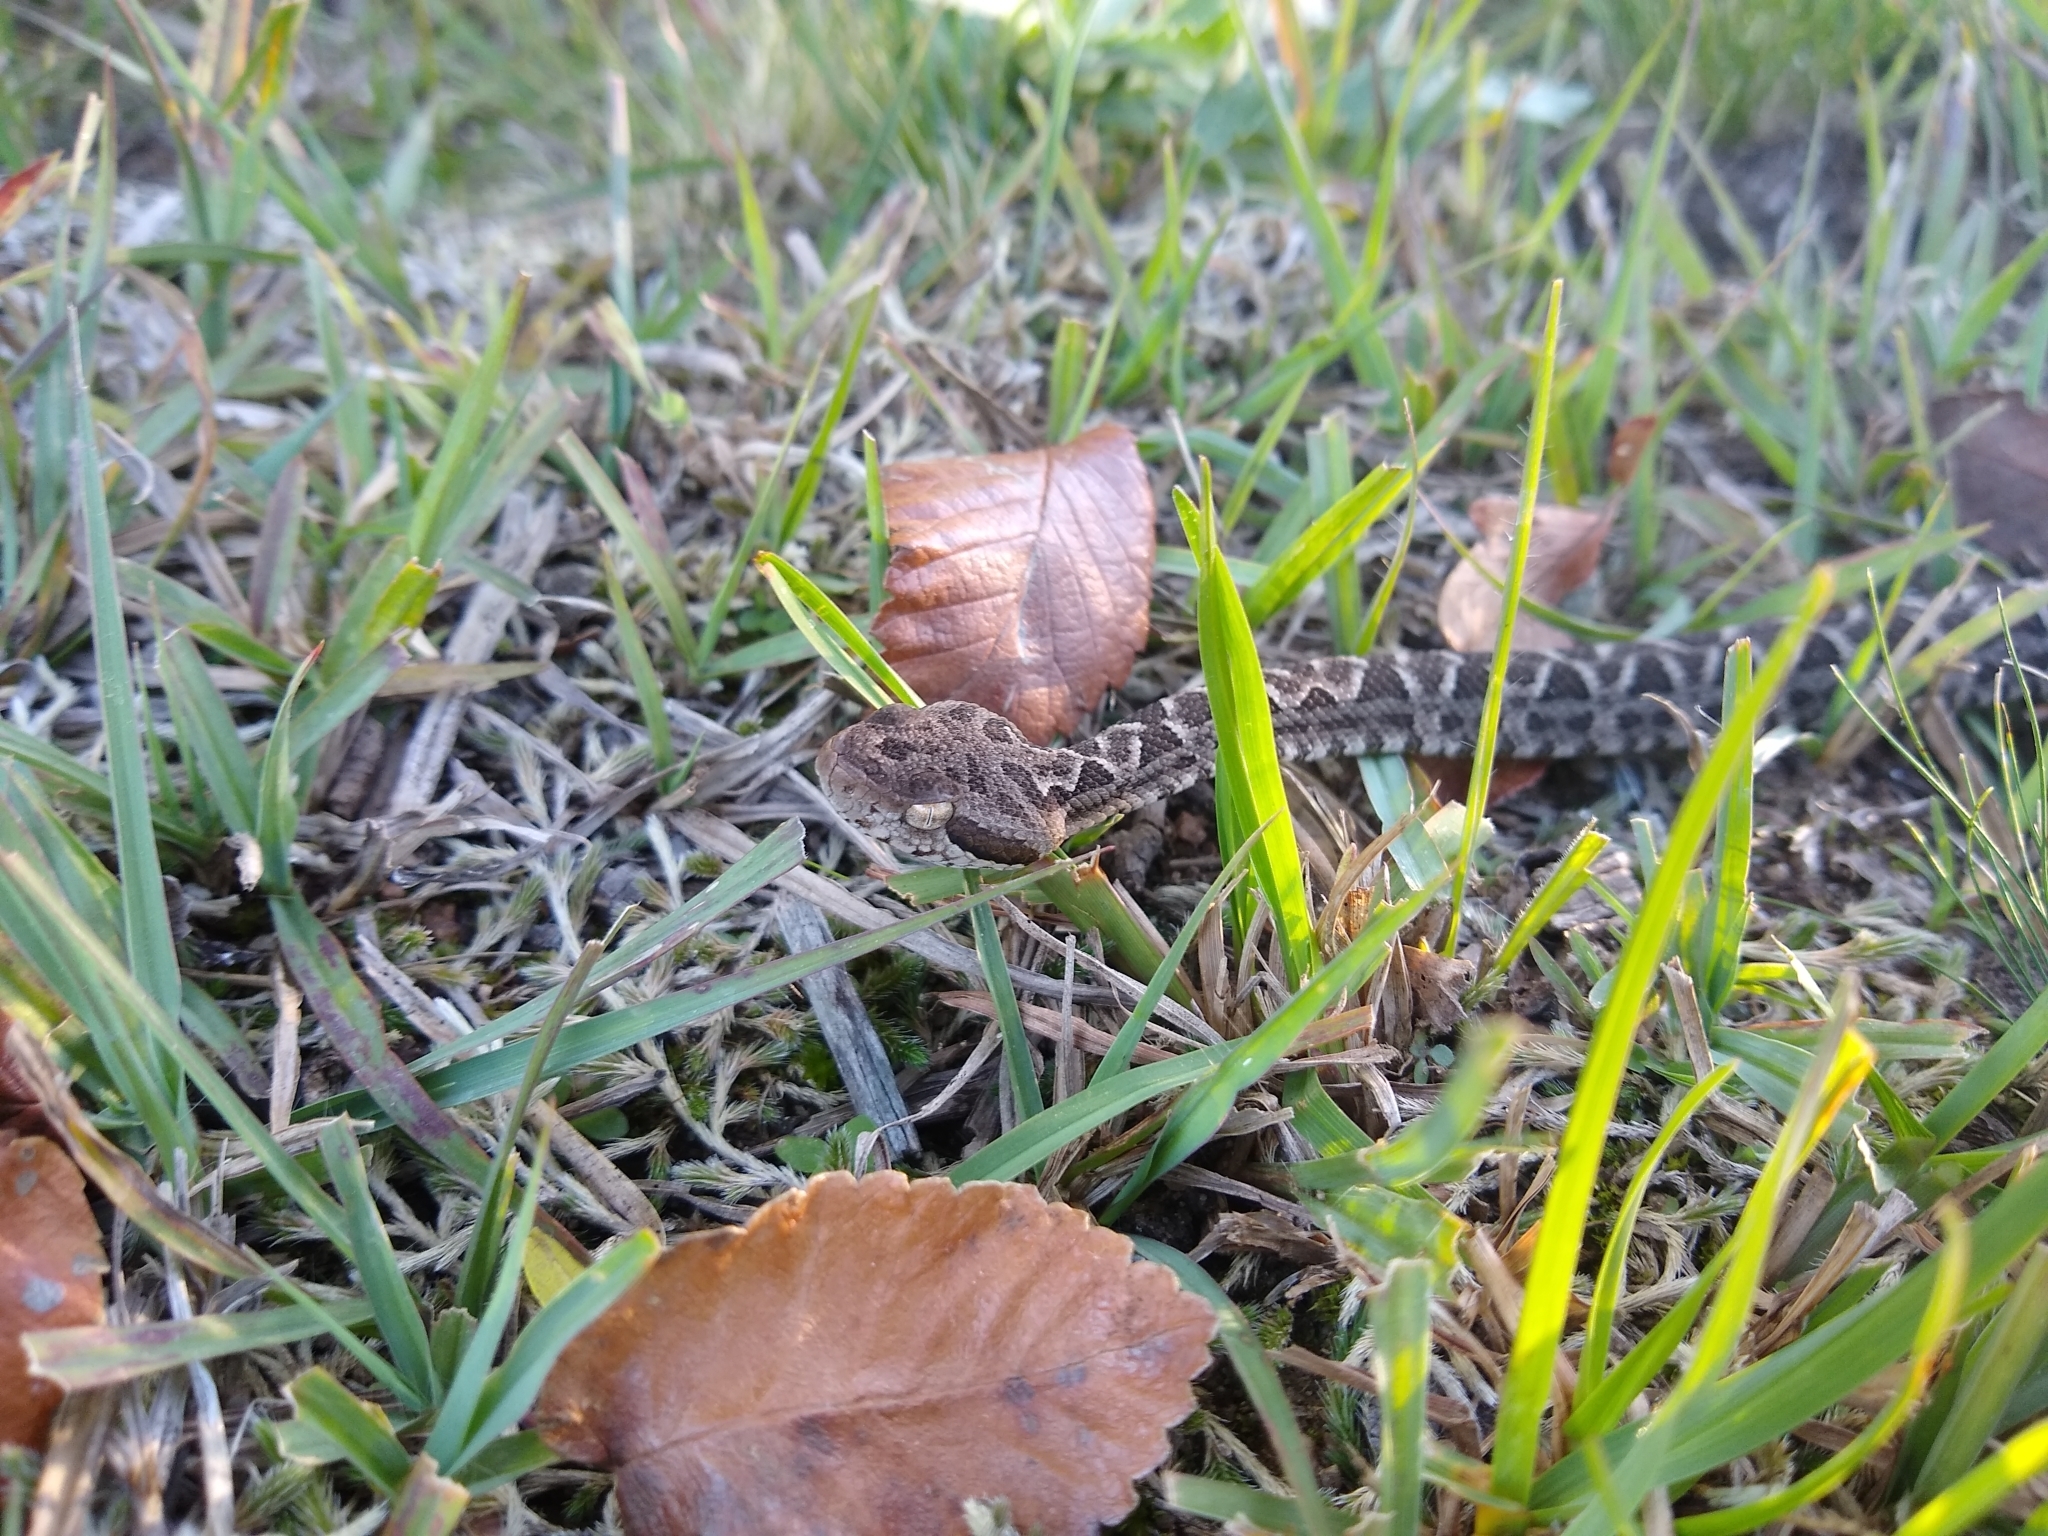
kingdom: Animalia
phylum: Chordata
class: Squamata
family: Viperidae
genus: Bothrops
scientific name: Bothrops diporus
